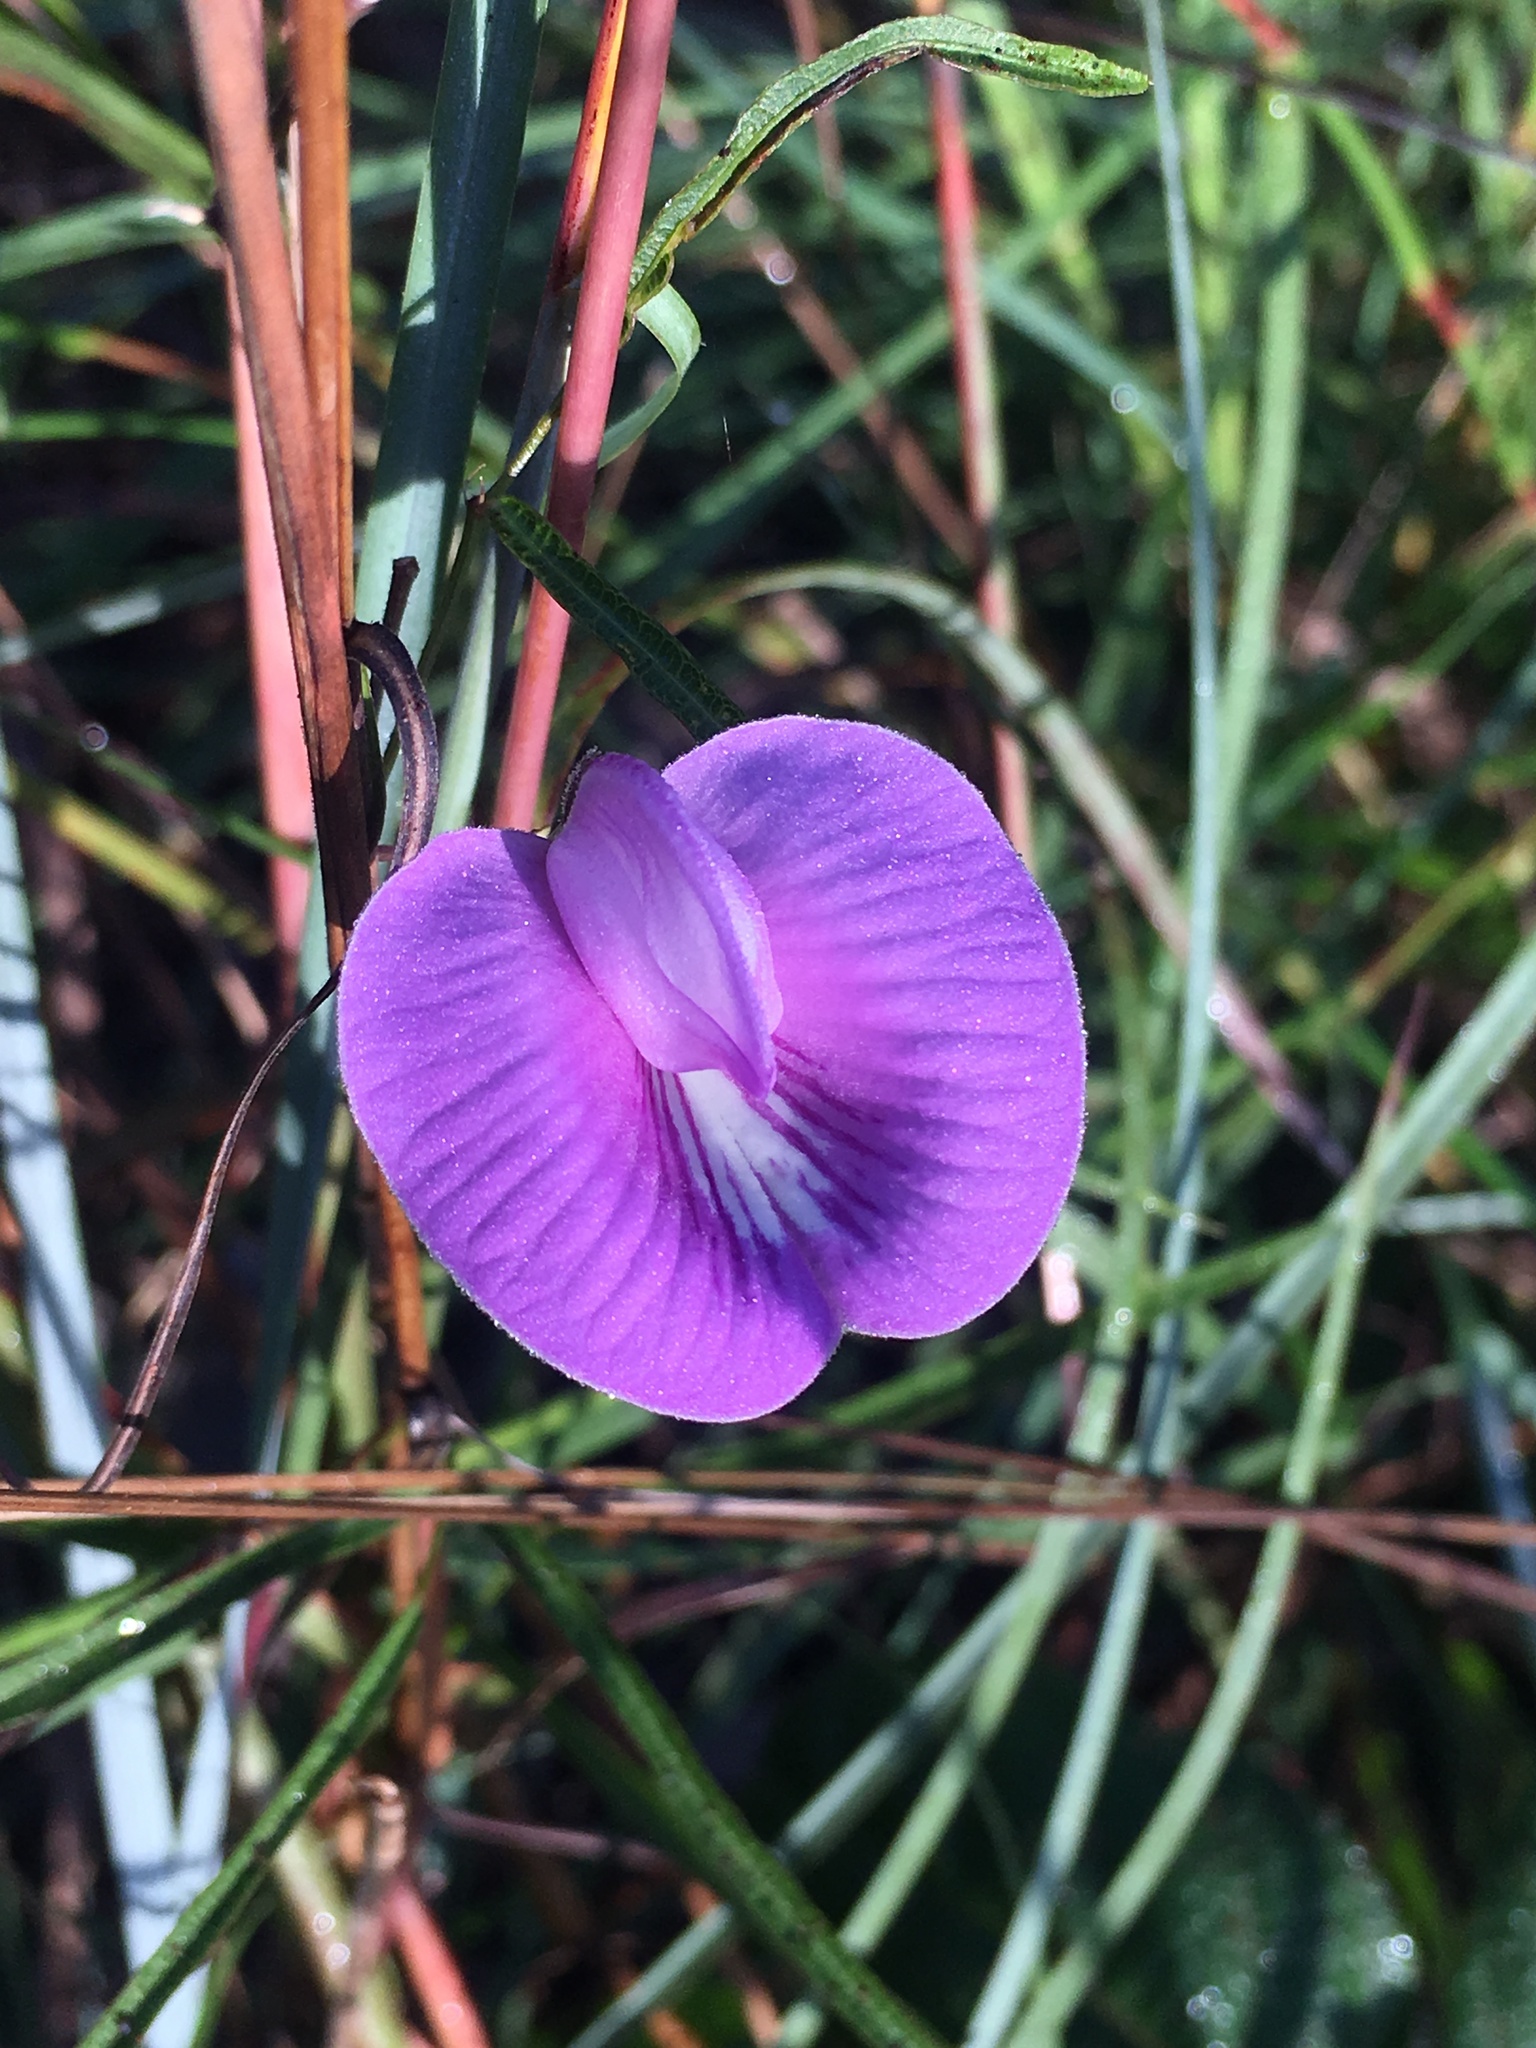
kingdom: Plantae
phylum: Tracheophyta
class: Magnoliopsida
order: Fabales
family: Fabaceae
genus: Centrosema
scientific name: Centrosema virginianum
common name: Butterfly-pea
